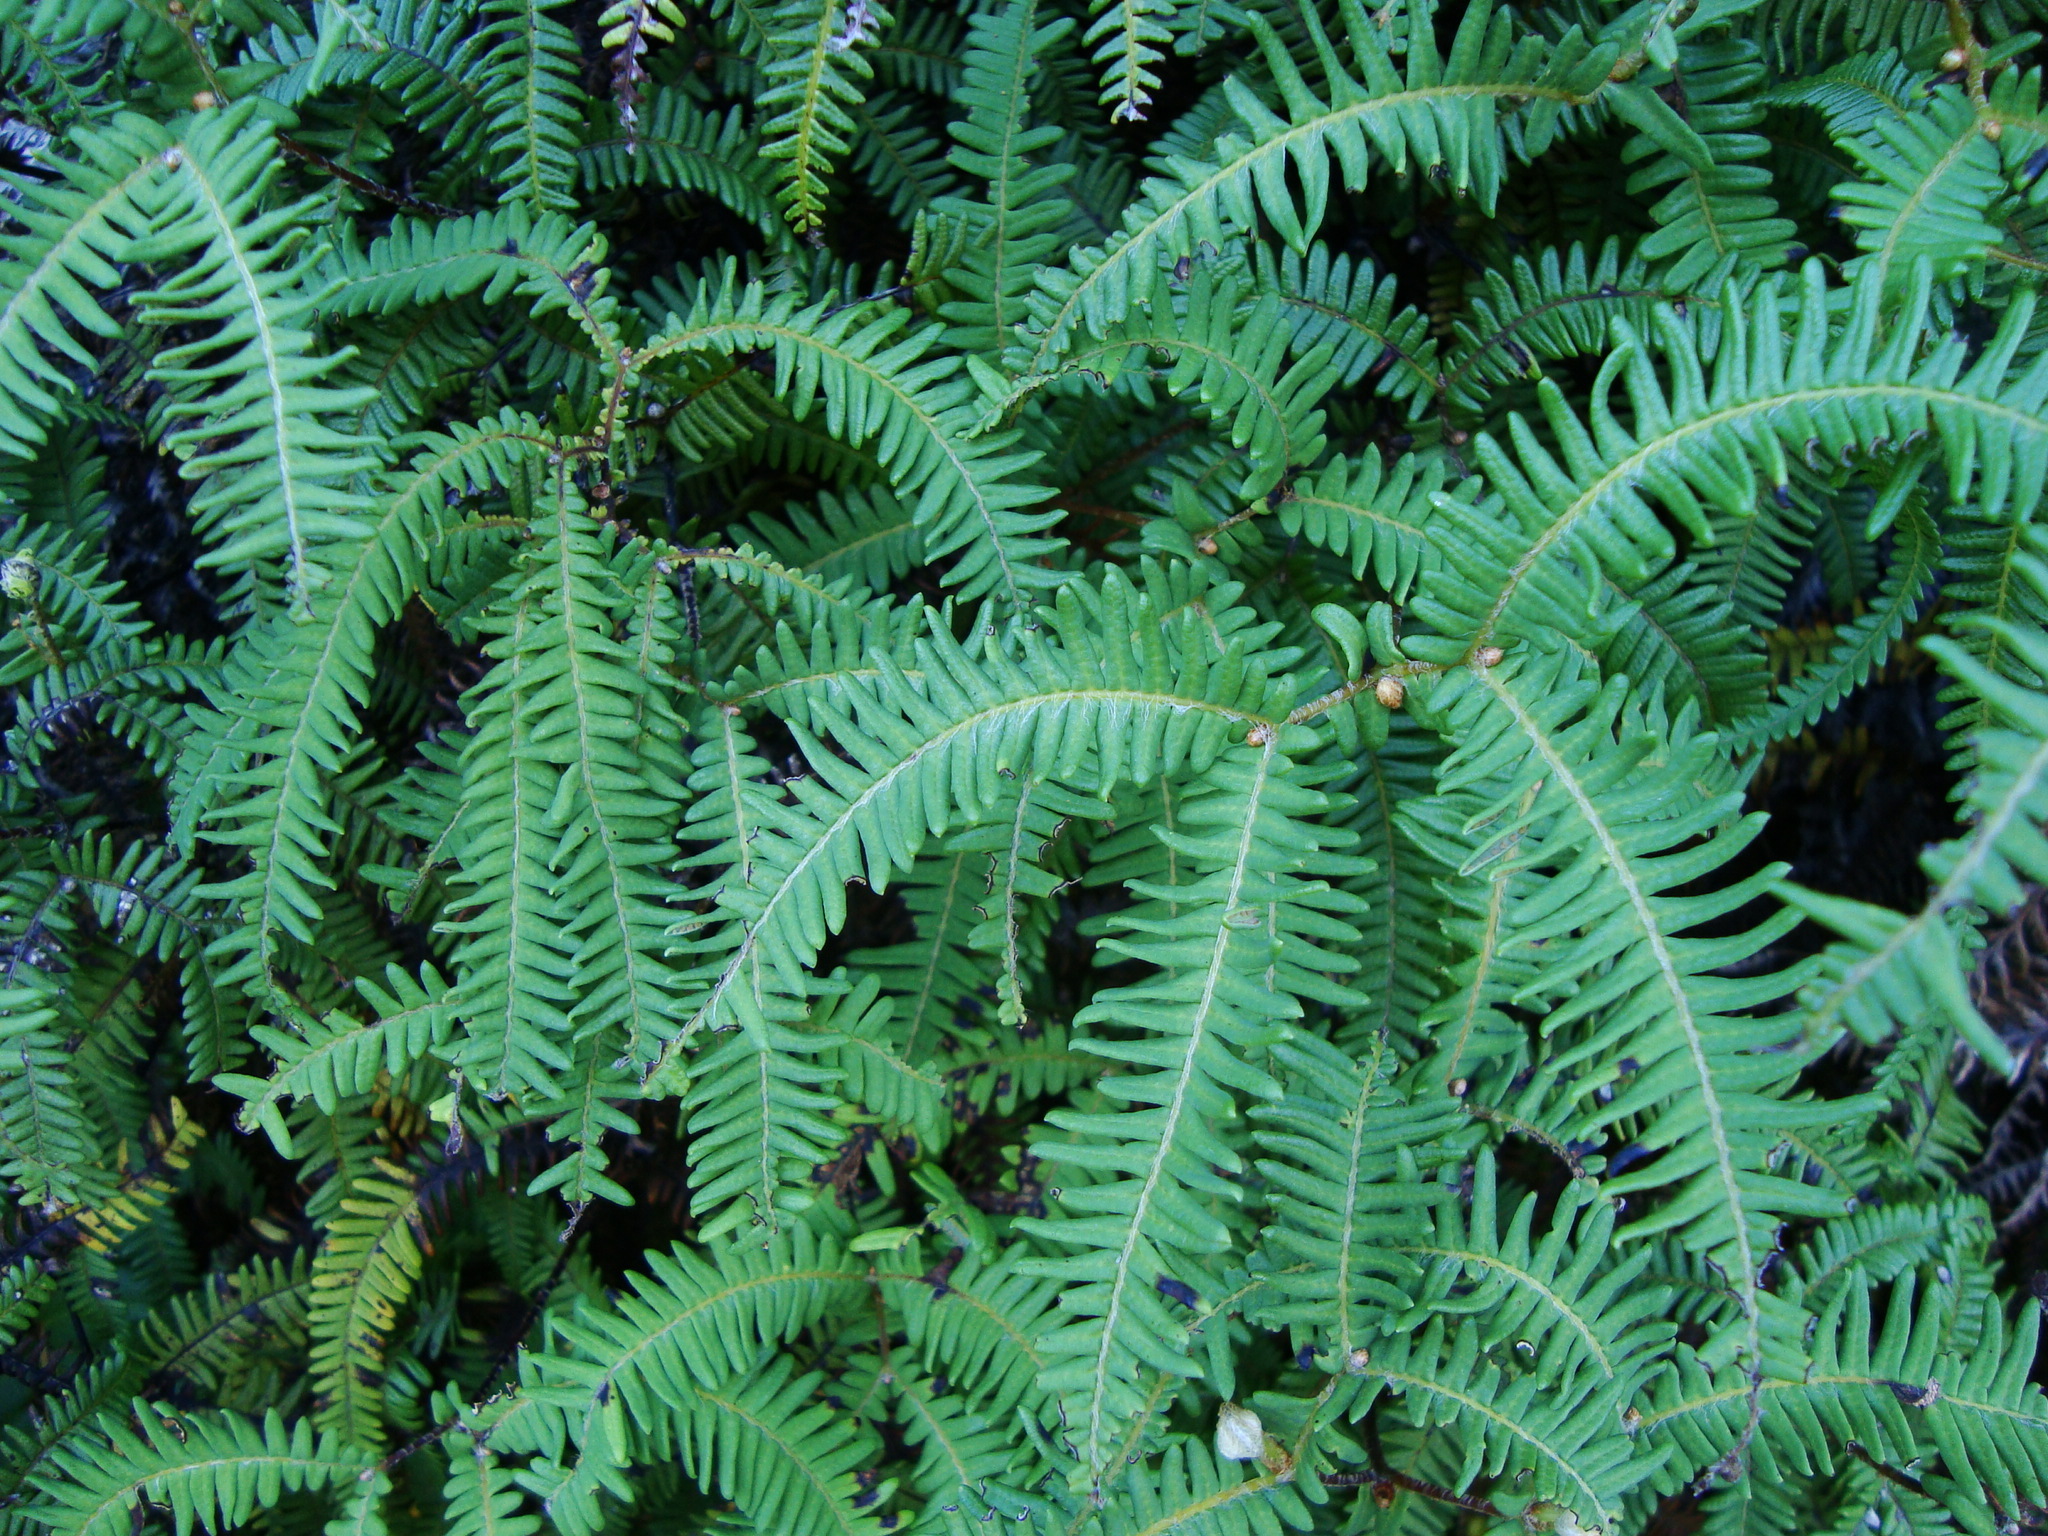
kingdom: Plantae
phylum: Tracheophyta
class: Polypodiopsida
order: Gleicheniales
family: Gleicheniaceae
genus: Sticherus
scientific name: Sticherus squamulosus
